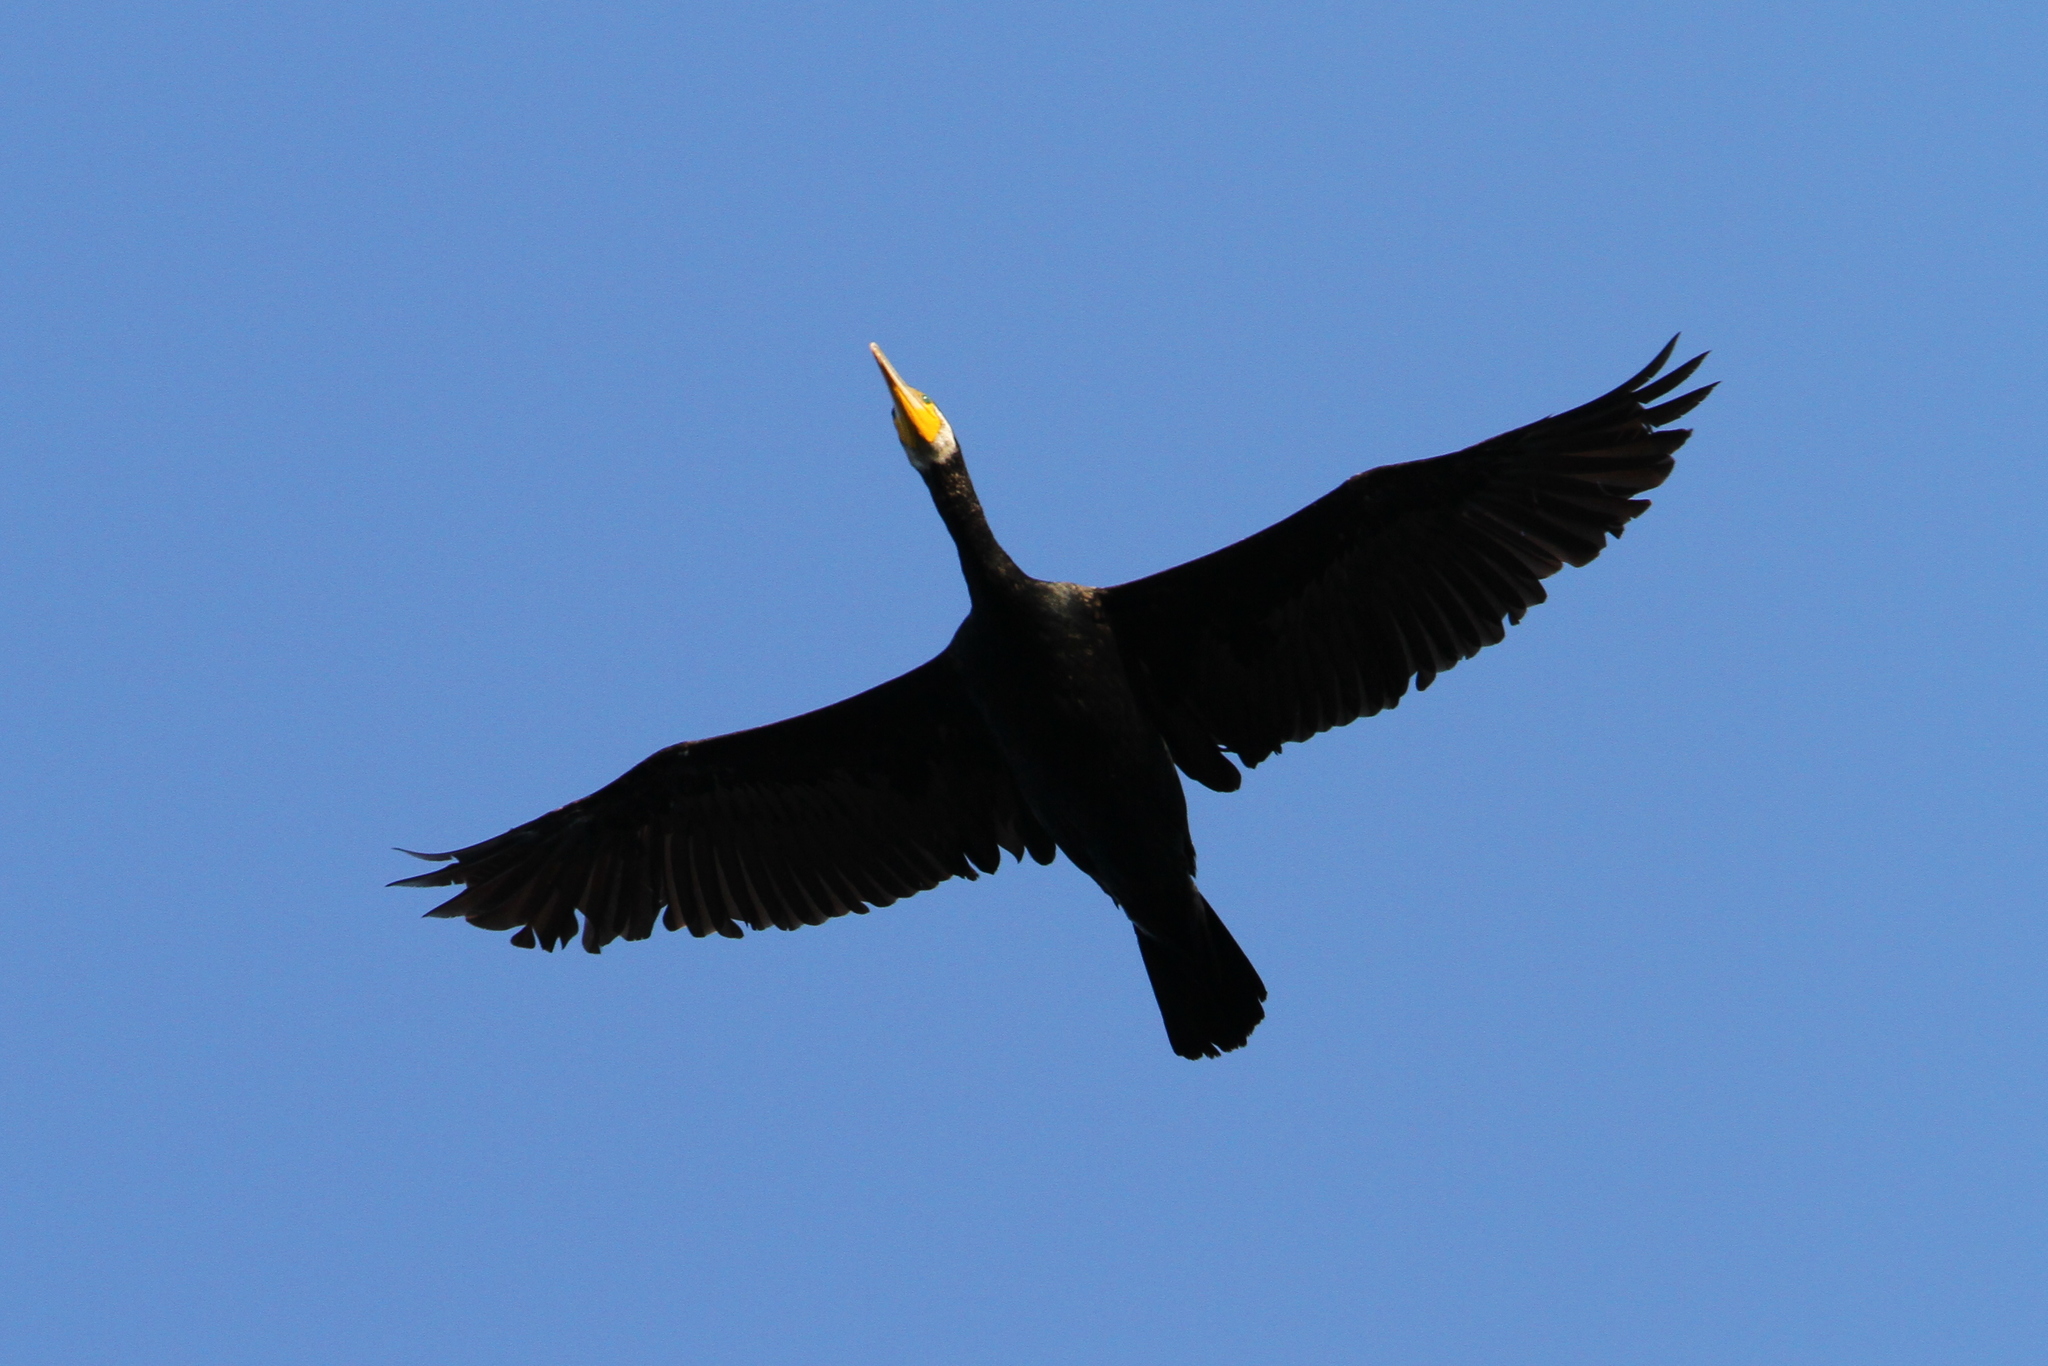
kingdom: Animalia
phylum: Chordata
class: Aves
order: Suliformes
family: Phalacrocoracidae
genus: Phalacrocorax
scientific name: Phalacrocorax carbo
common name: Great cormorant
